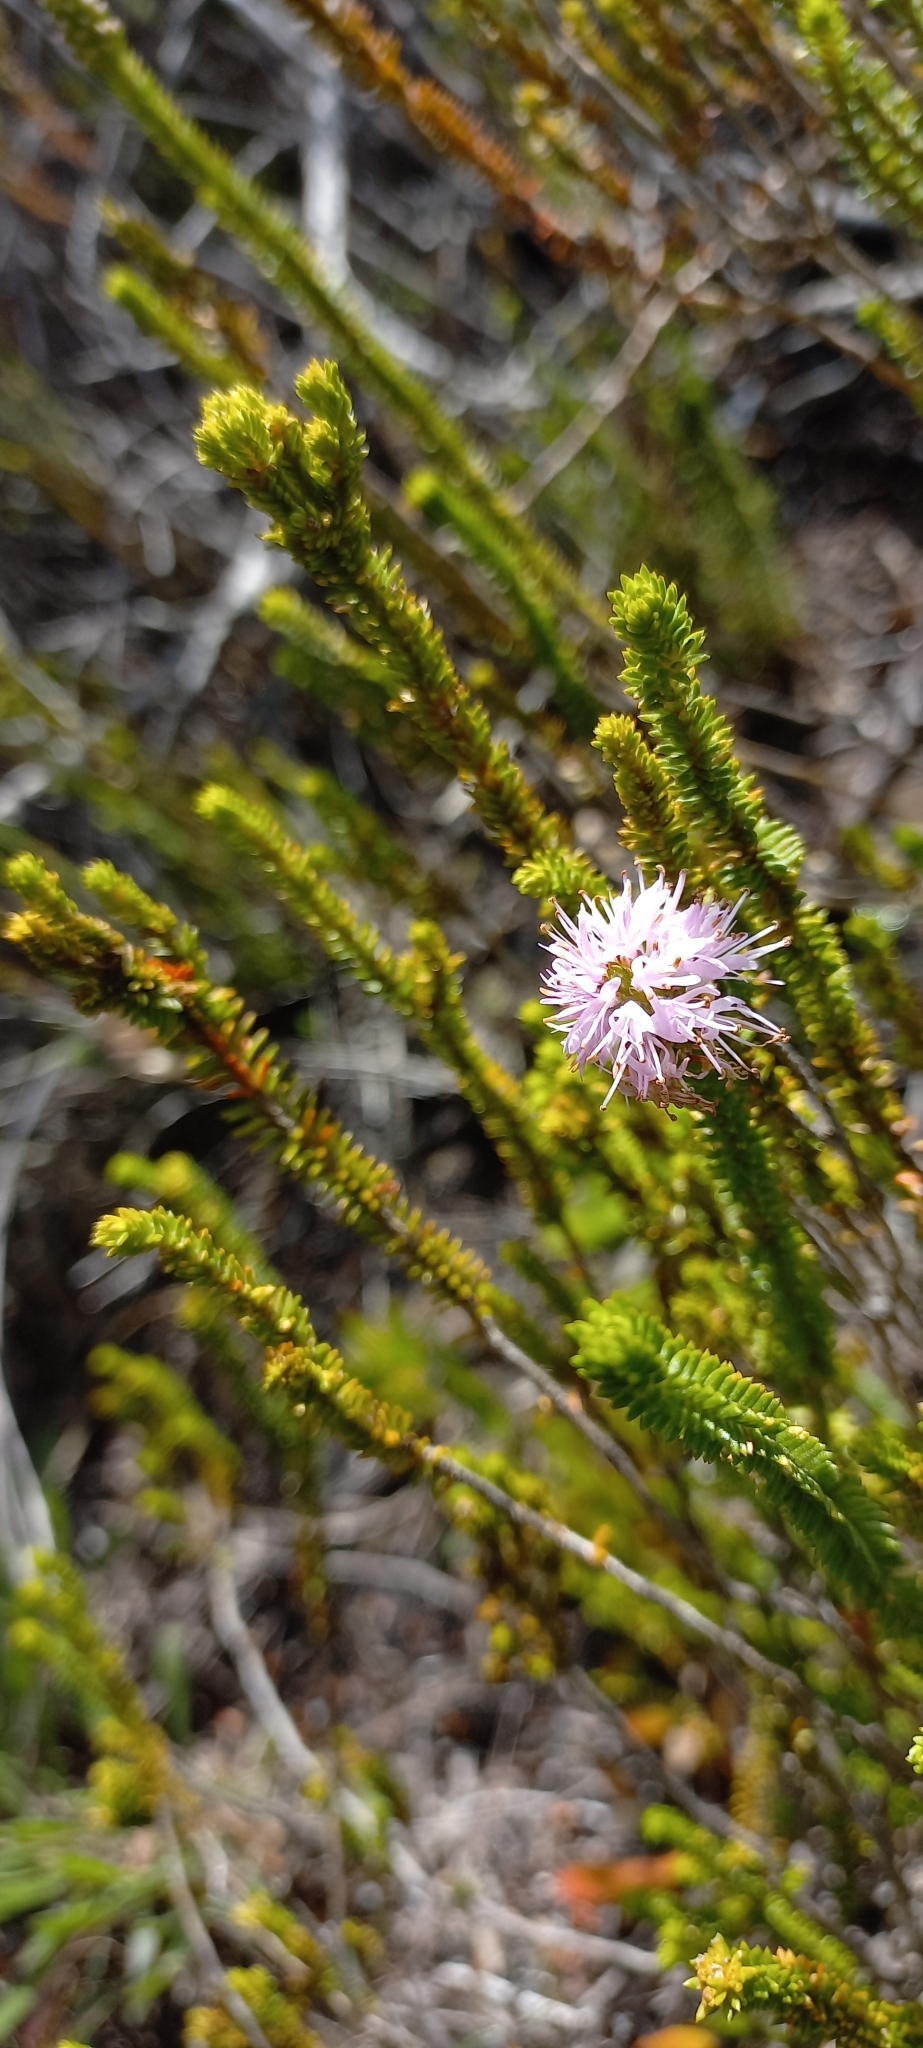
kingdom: Plantae
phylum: Tracheophyta
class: Magnoliopsida
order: Lamiales
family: Stilbaceae
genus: Stilbe
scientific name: Stilbe ericoides
